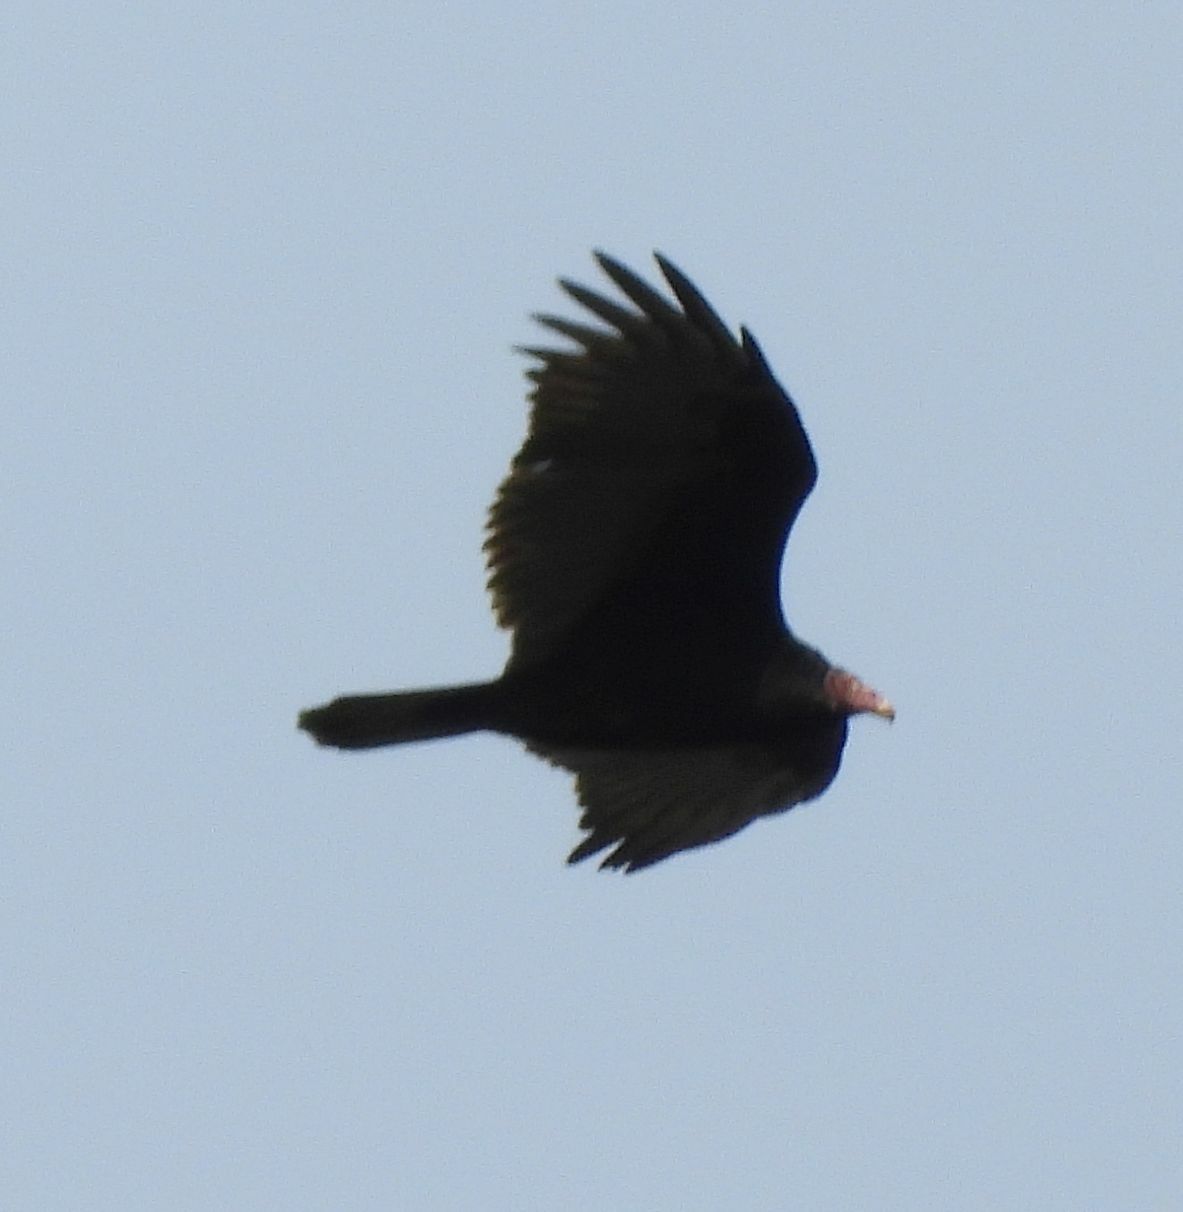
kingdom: Animalia
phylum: Chordata
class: Aves
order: Accipitriformes
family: Cathartidae
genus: Cathartes
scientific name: Cathartes aura
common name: Turkey vulture
